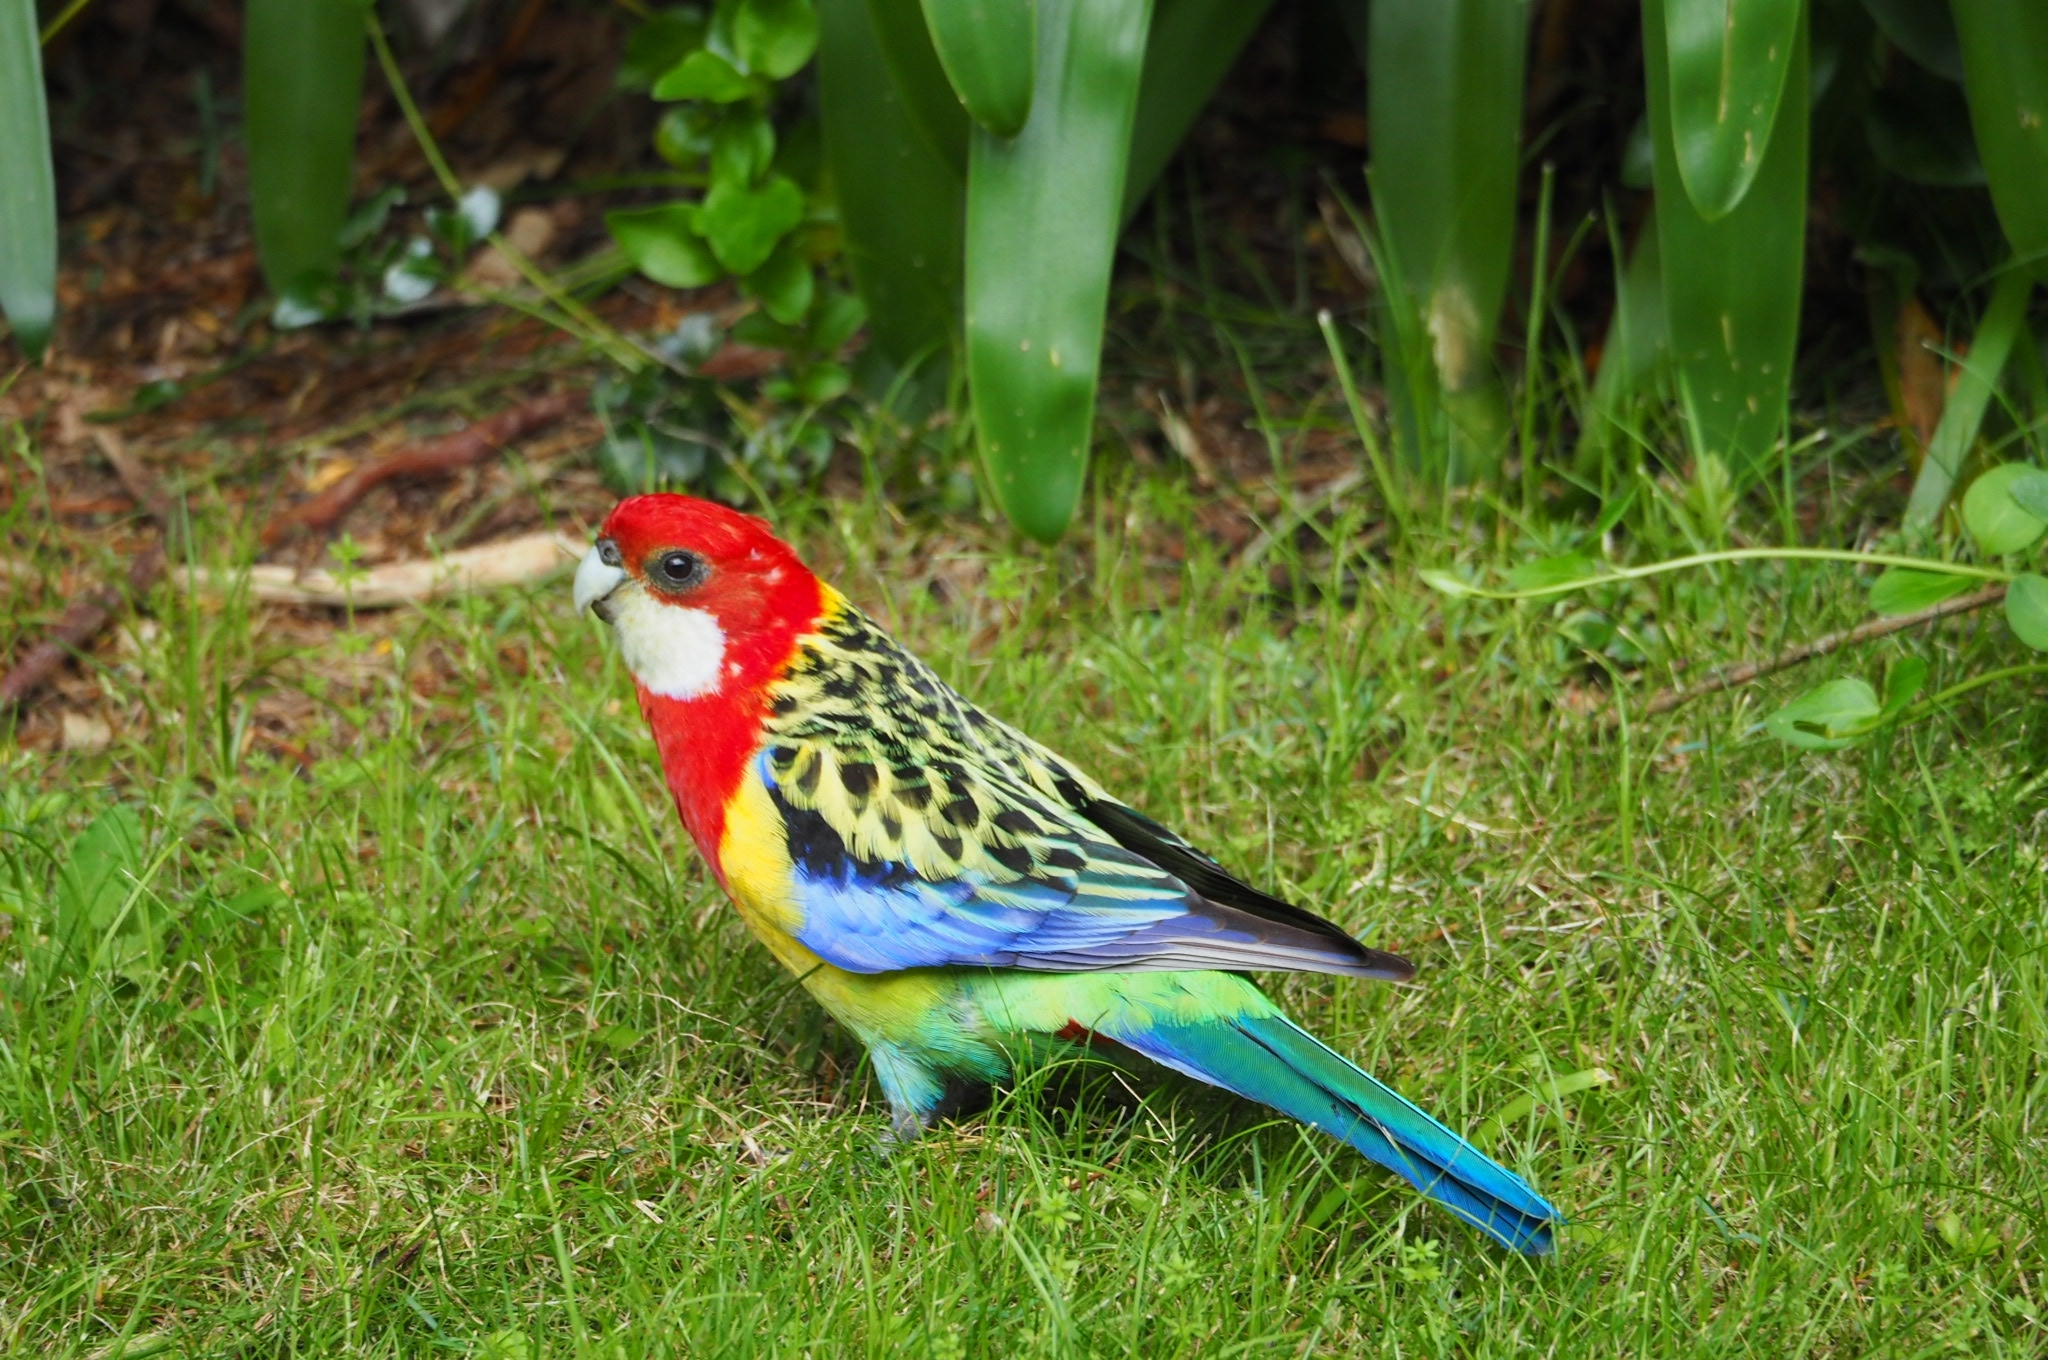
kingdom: Animalia
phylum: Chordata
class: Aves
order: Psittaciformes
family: Psittacidae
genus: Platycercus
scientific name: Platycercus eximius
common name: Eastern rosella
